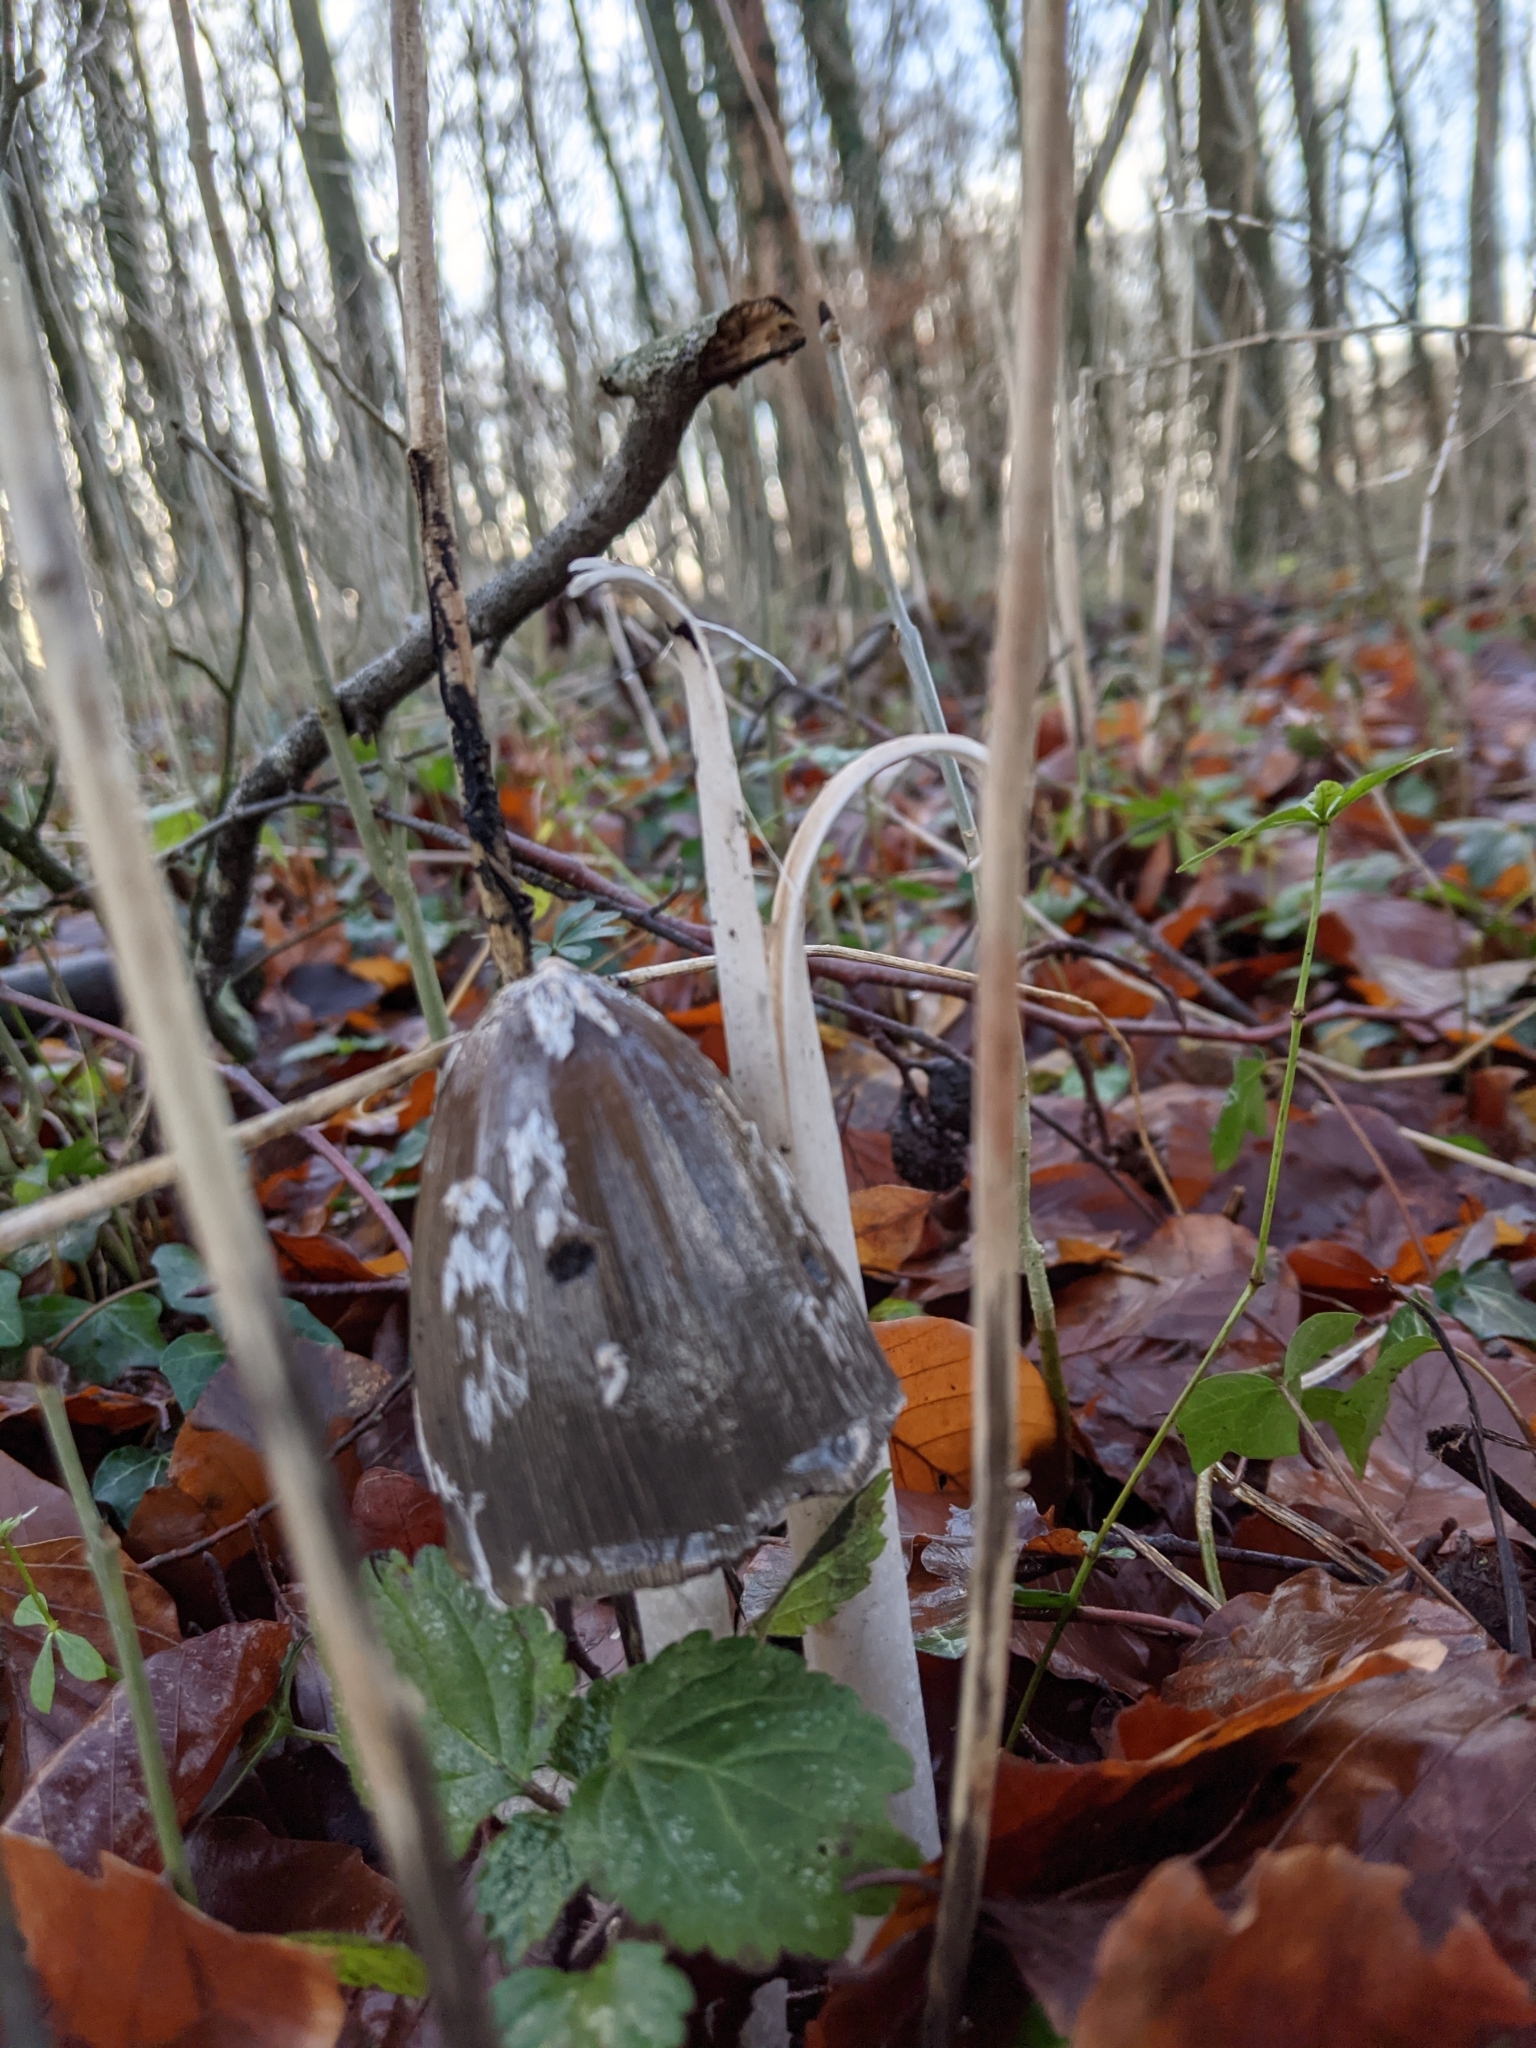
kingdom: Fungi
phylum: Basidiomycota
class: Agaricomycetes
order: Agaricales
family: Psathyrellaceae
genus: Coprinopsis
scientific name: Coprinopsis picacea
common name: Magpie inkcap
